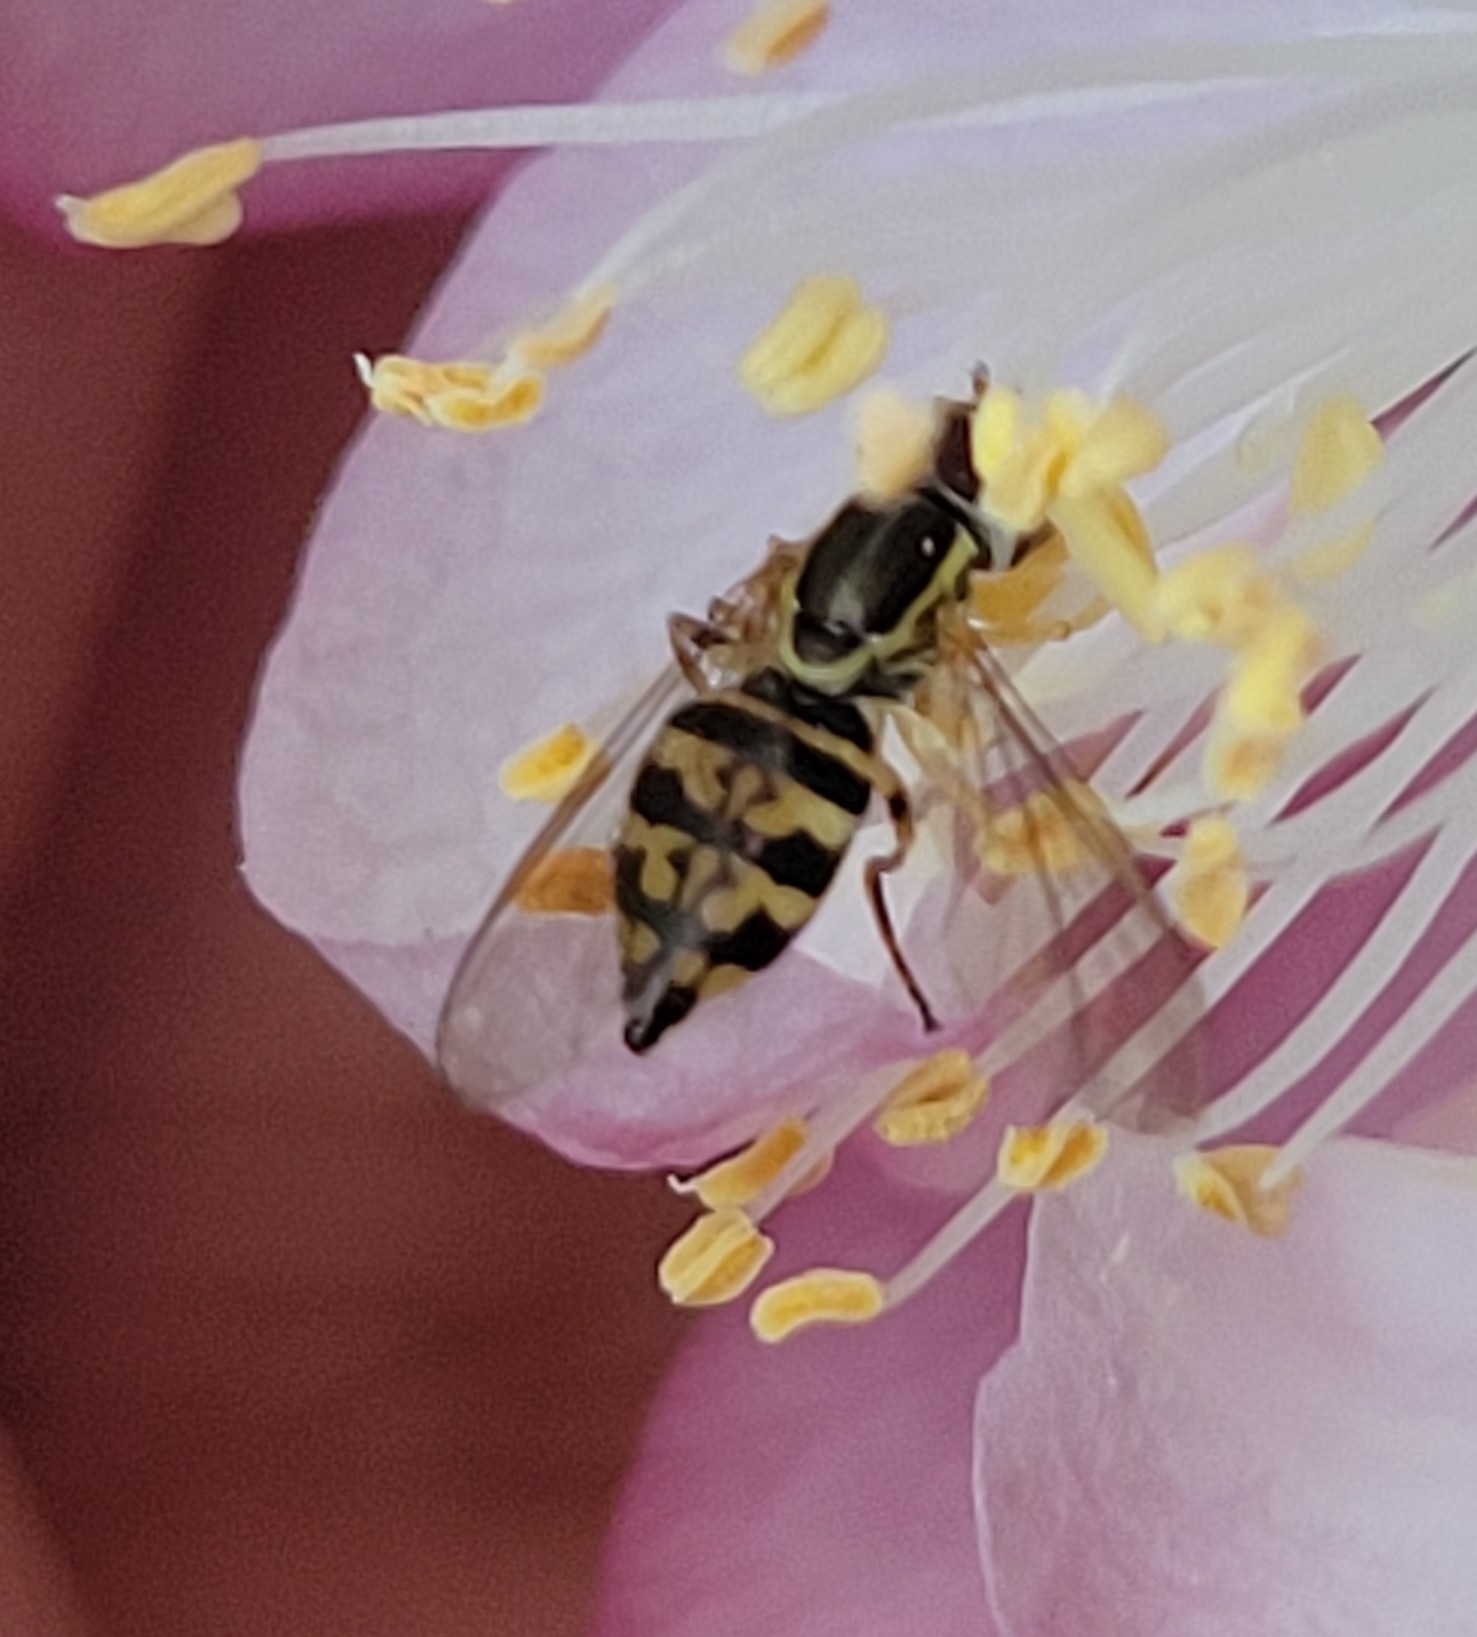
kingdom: Animalia
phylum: Arthropoda
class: Insecta
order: Diptera
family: Syrphidae
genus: Toxomerus
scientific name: Toxomerus geminatus
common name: Eastern calligrapher
